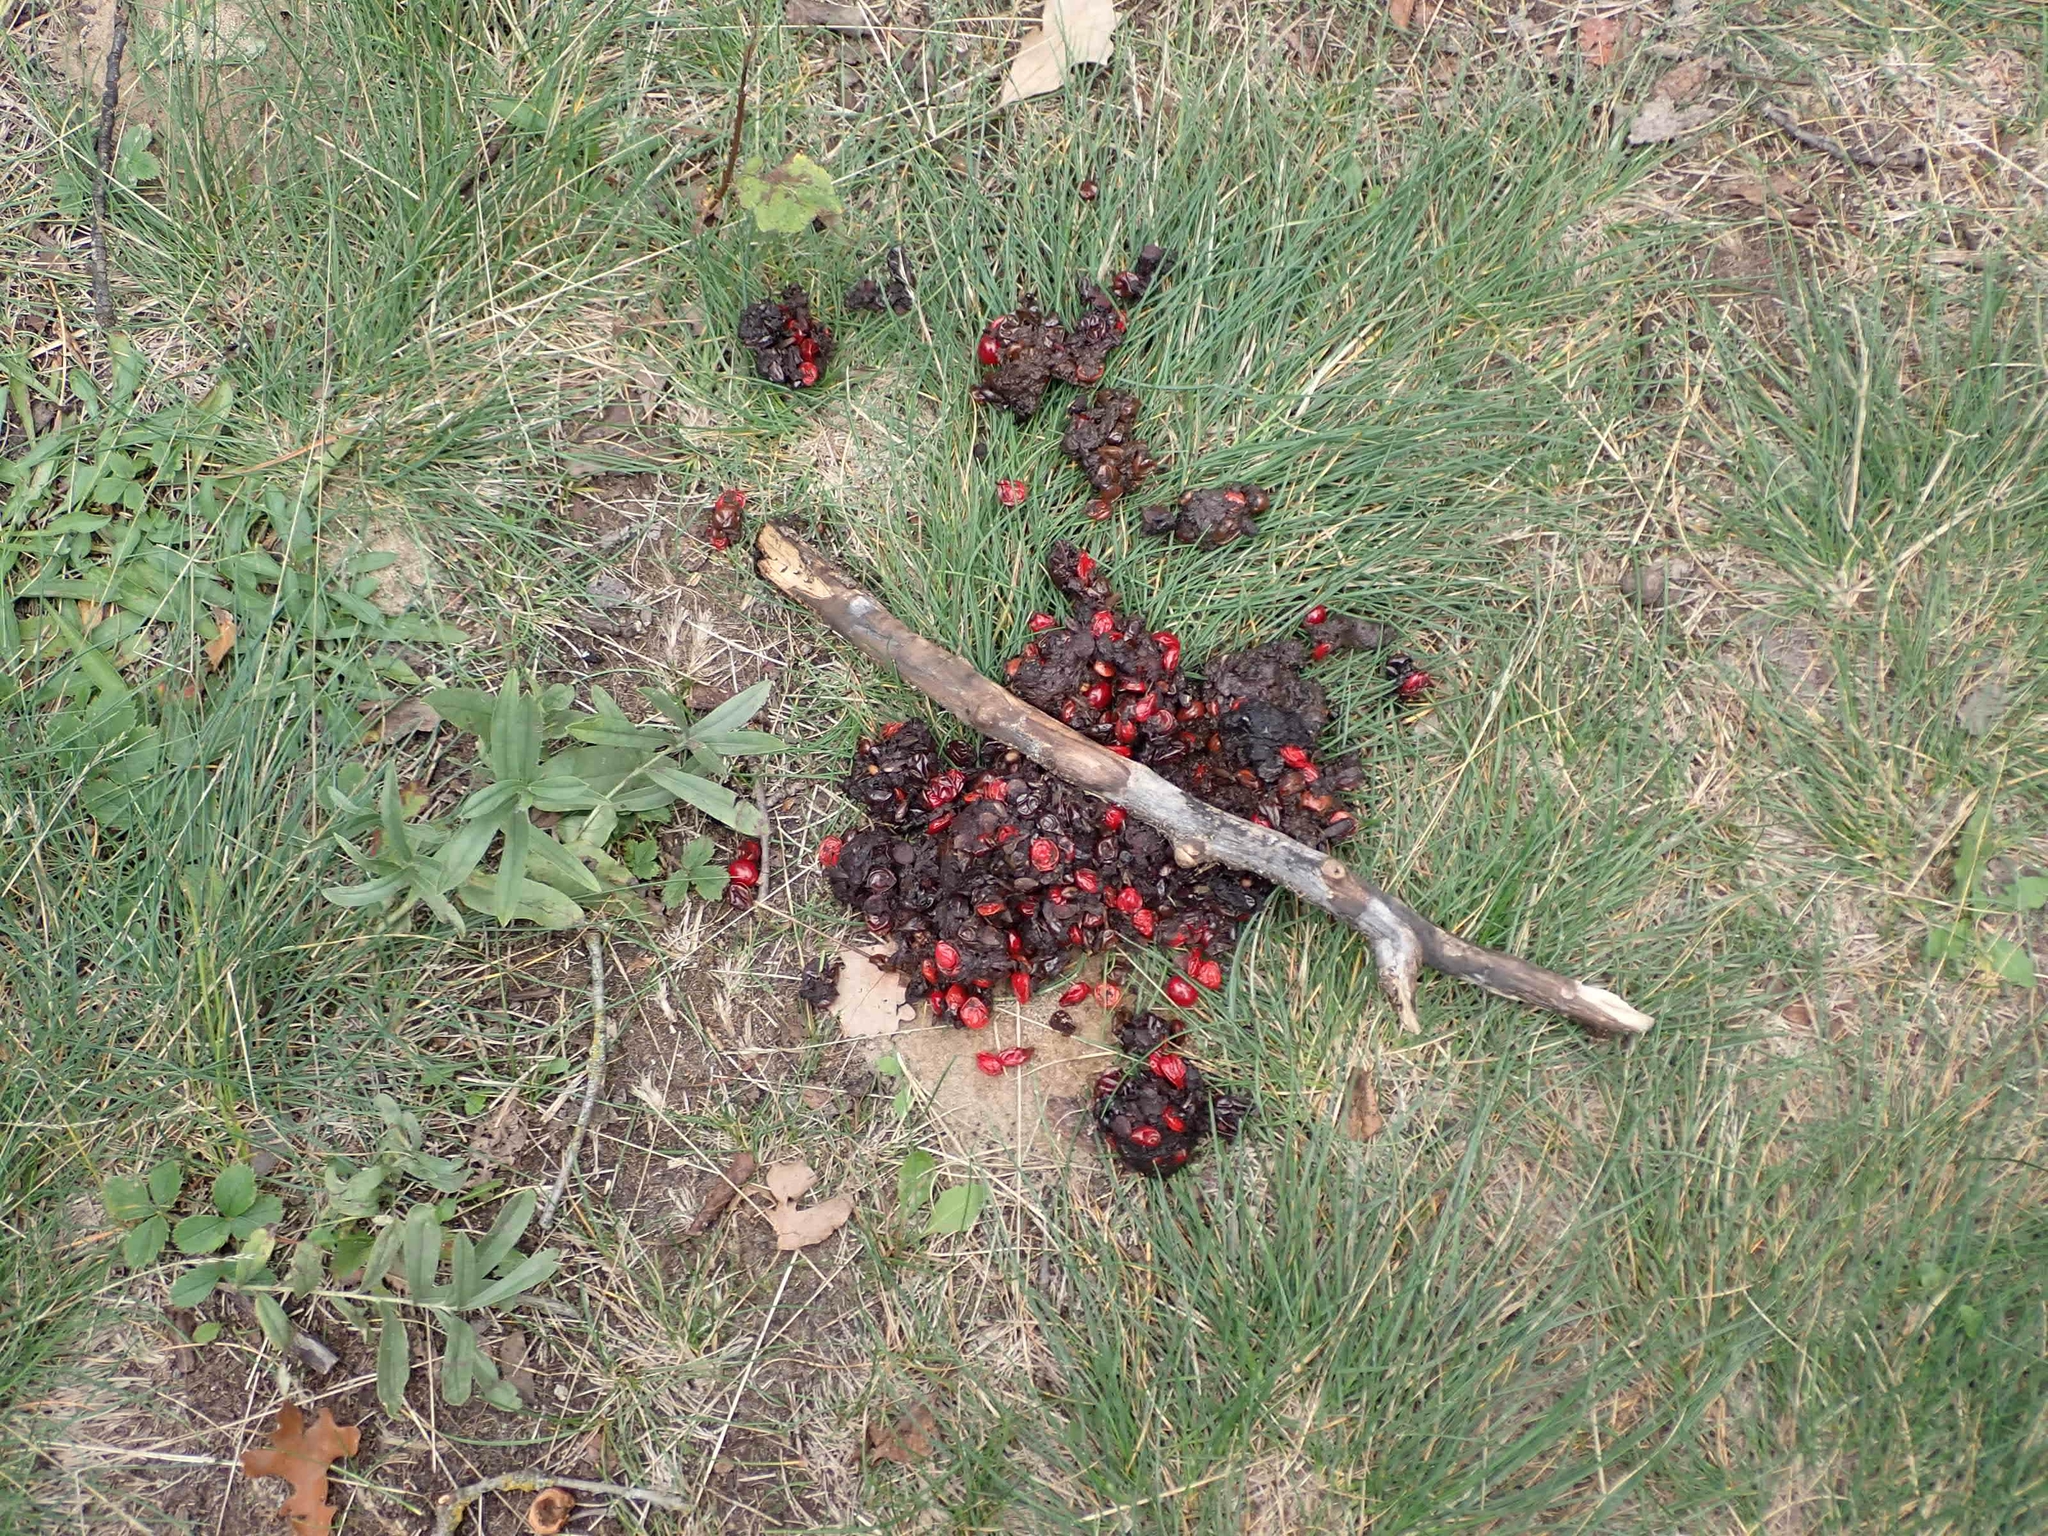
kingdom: Animalia
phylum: Chordata
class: Mammalia
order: Carnivora
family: Ursidae
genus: Ursus
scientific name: Ursus americanus
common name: American black bear
